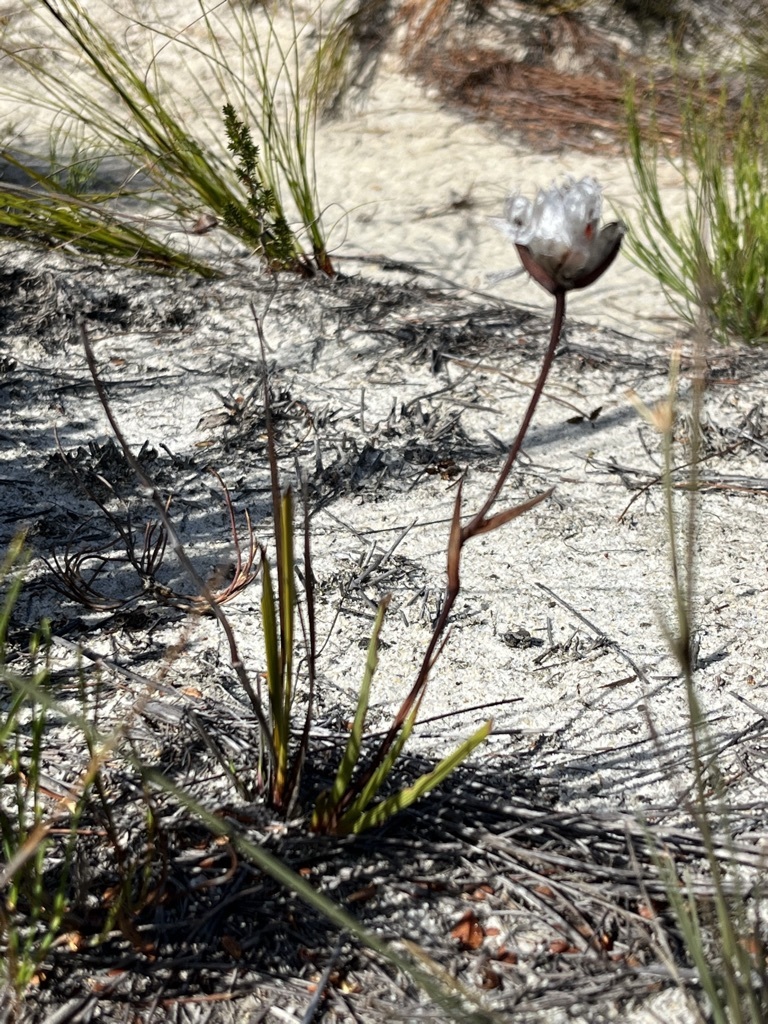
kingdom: Plantae
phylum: Tracheophyta
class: Liliopsida
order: Asparagales
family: Iridaceae
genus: Aristea
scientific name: Aristea oligocephala
